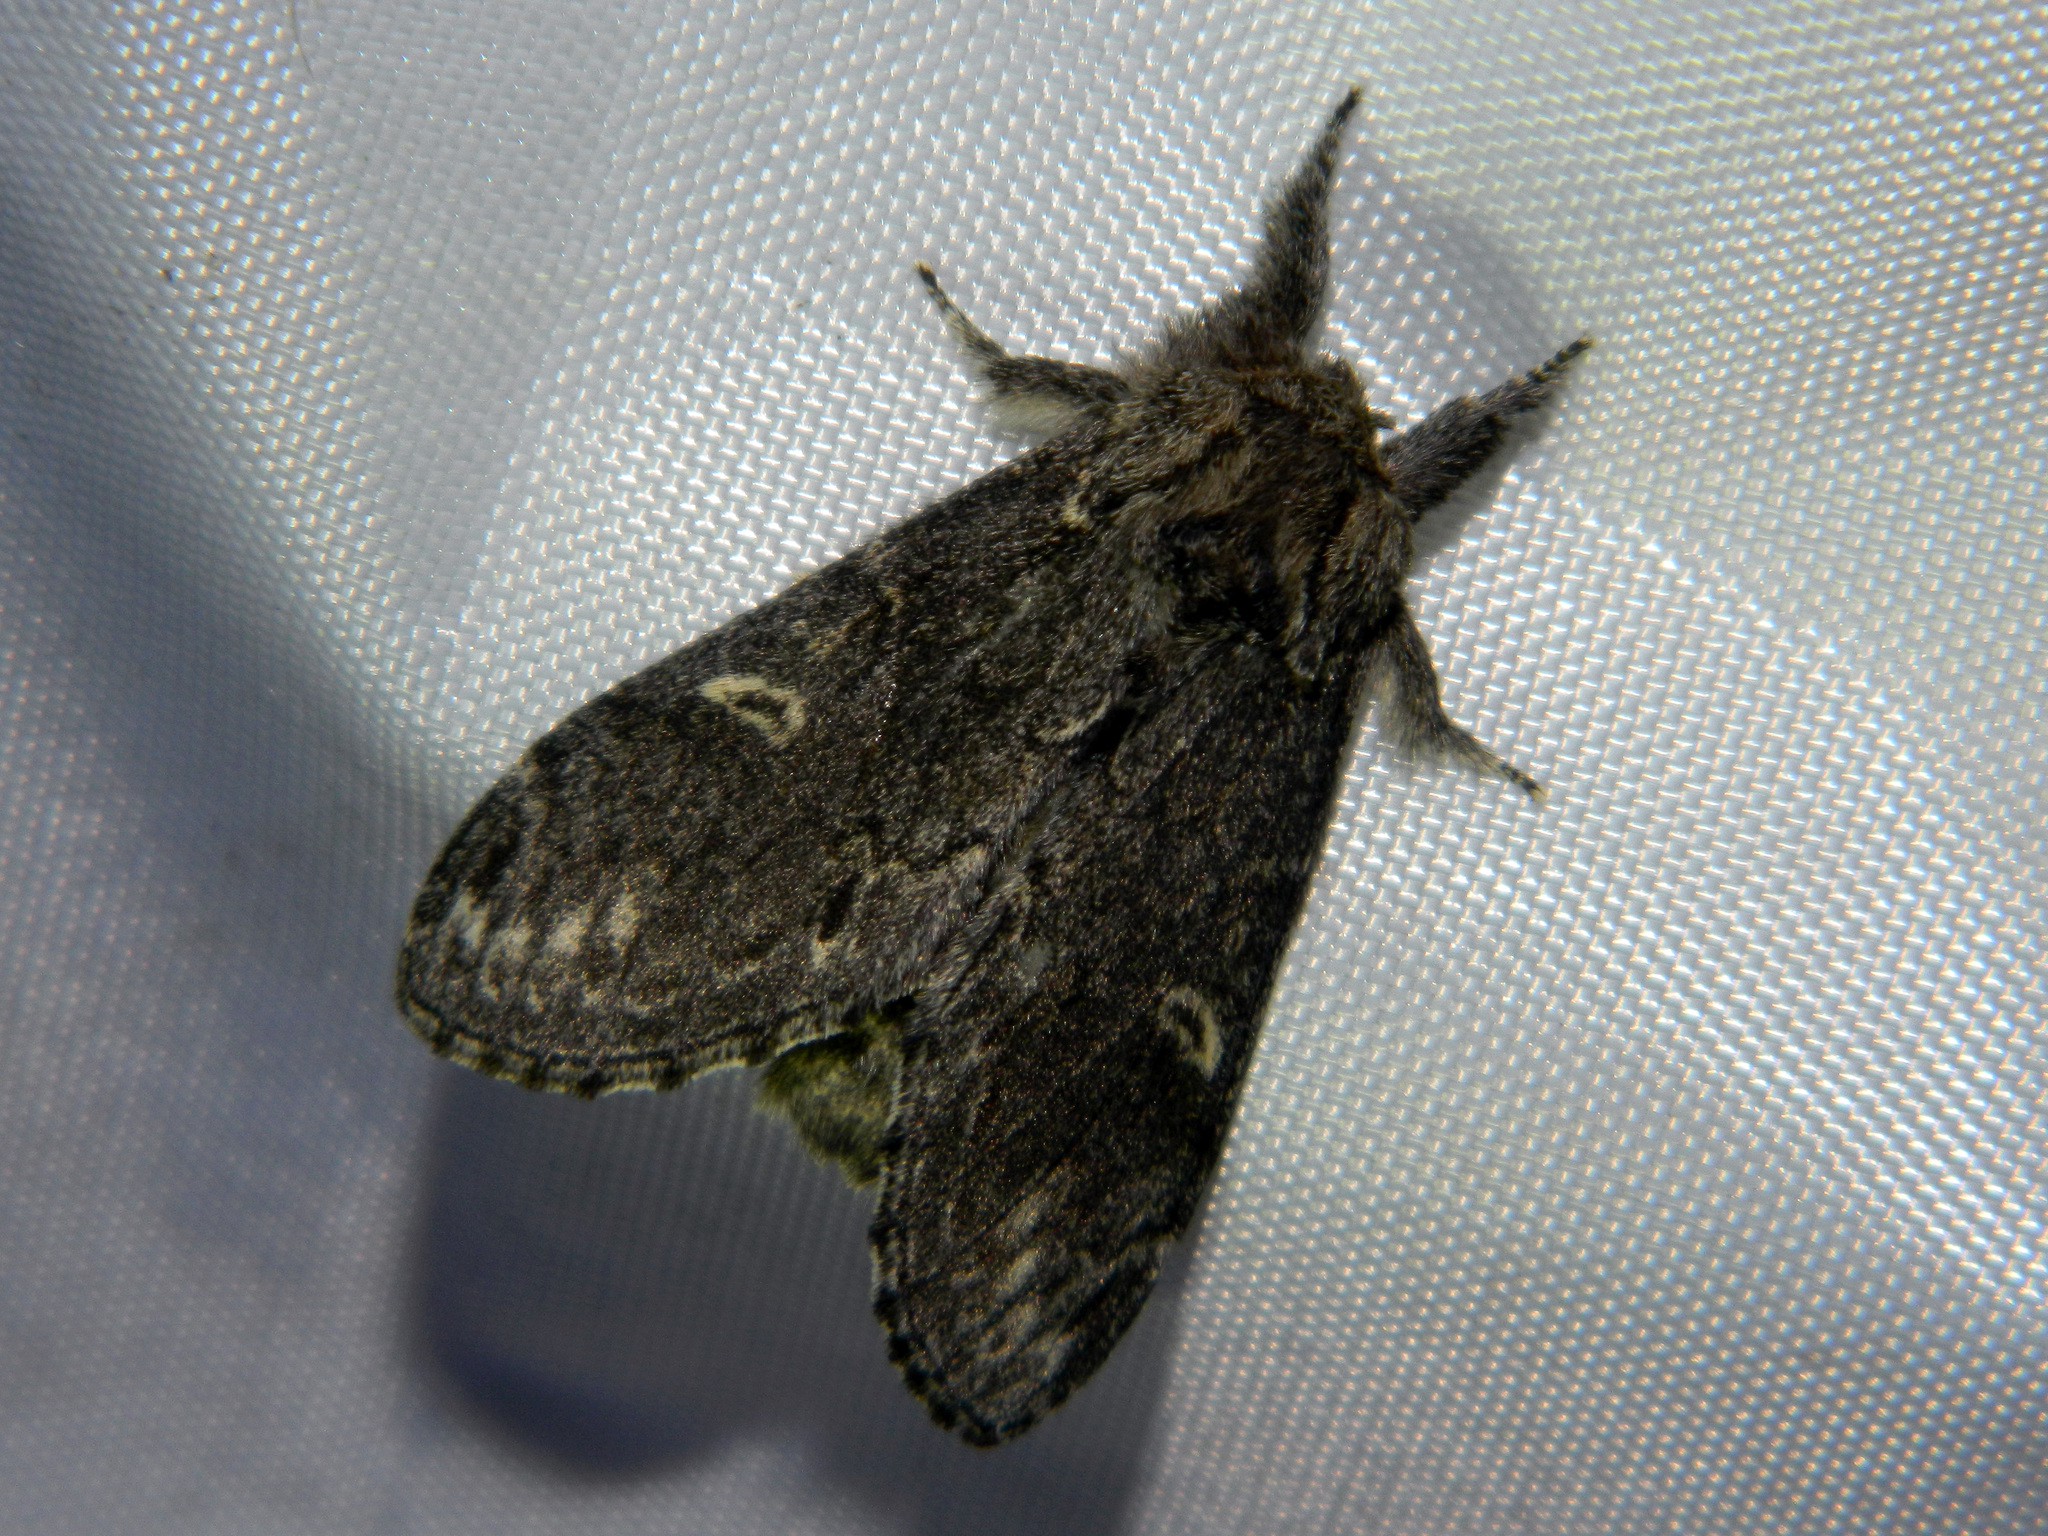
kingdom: Animalia
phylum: Arthropoda
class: Insecta
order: Lepidoptera
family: Notodontidae
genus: Notodonta
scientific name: Notodonta torva
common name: Large dark prominent
